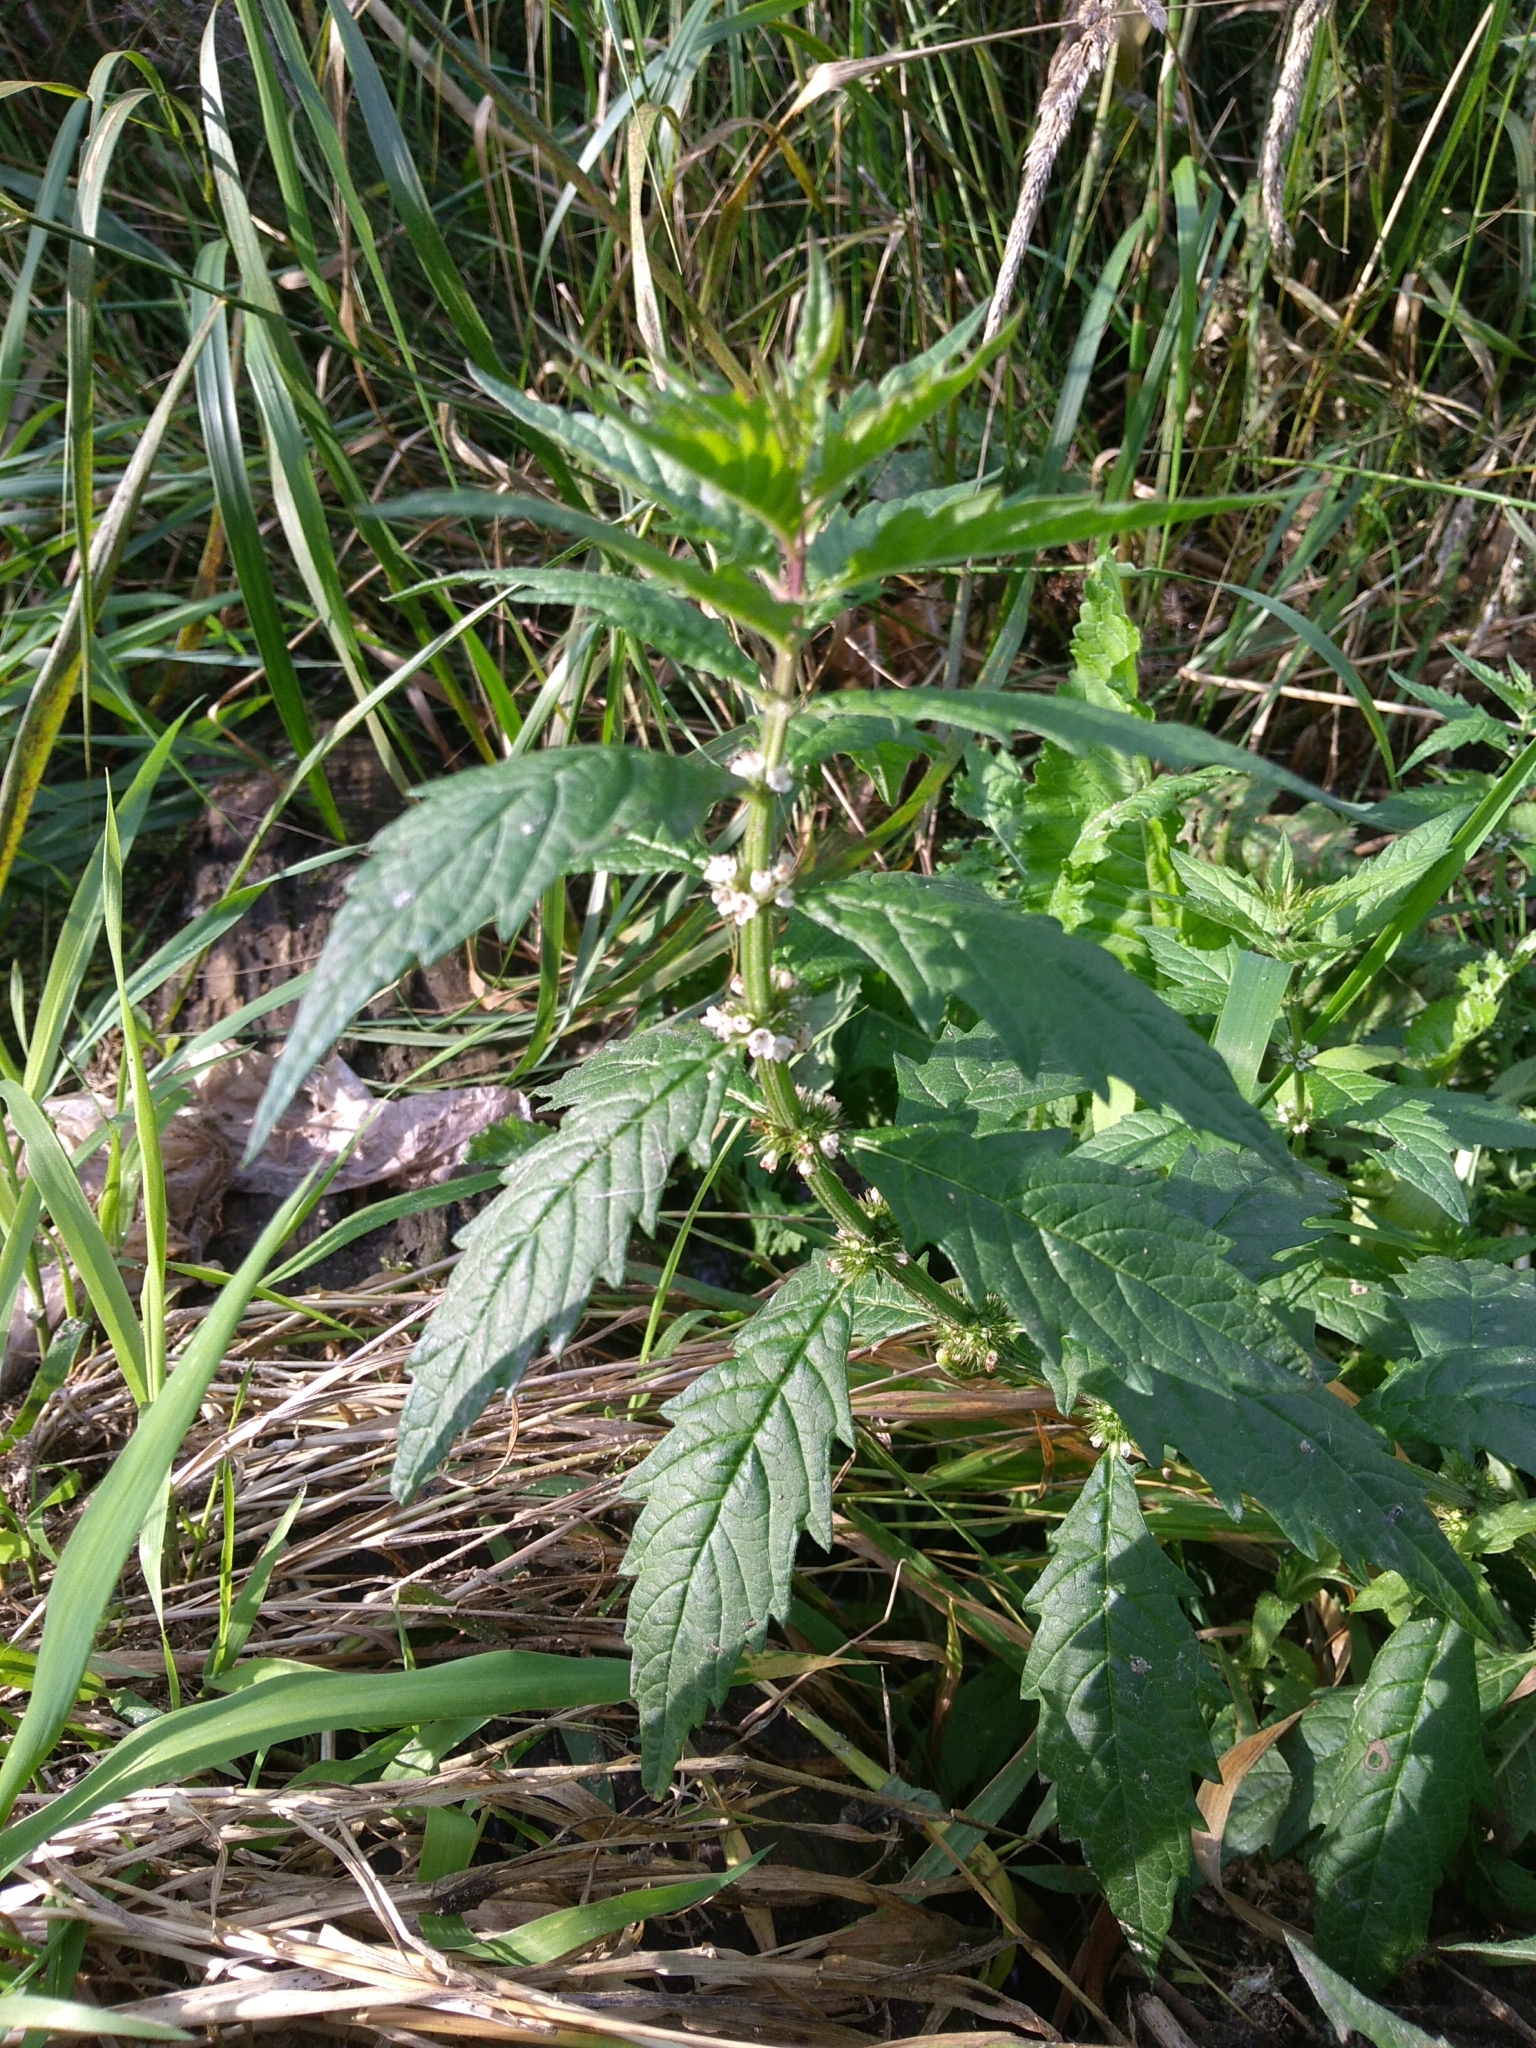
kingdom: Plantae
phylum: Tracheophyta
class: Magnoliopsida
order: Lamiales
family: Lamiaceae
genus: Lycopus
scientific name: Lycopus europaeus
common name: European bugleweed
